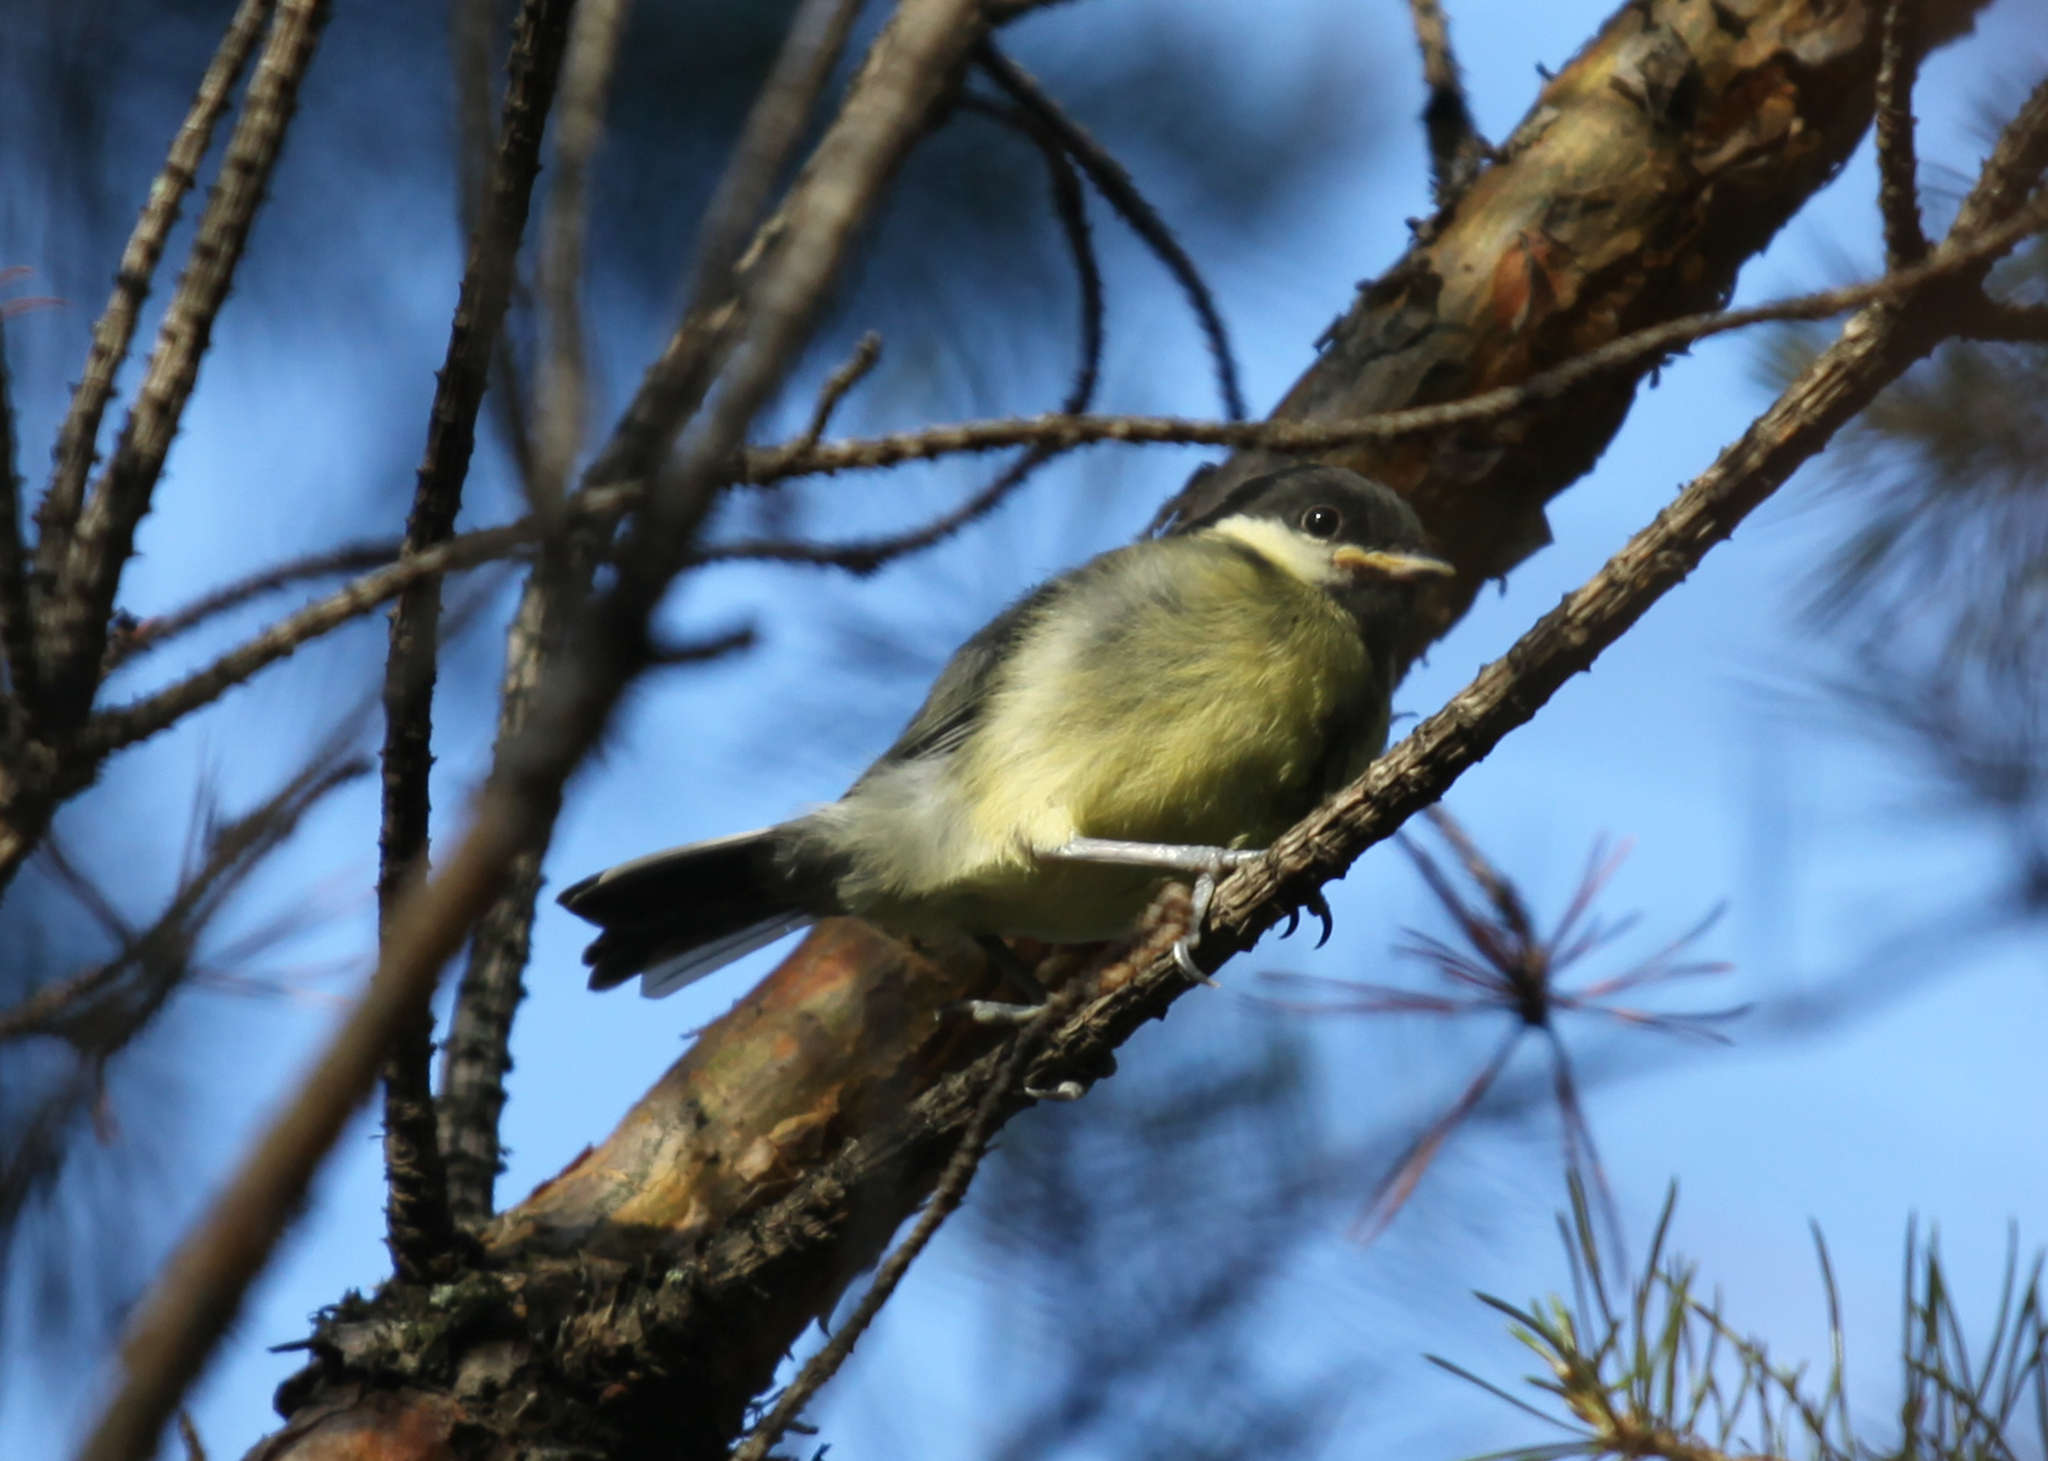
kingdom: Animalia
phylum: Chordata
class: Aves
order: Passeriformes
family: Paridae
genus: Parus
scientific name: Parus major
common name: Great tit
